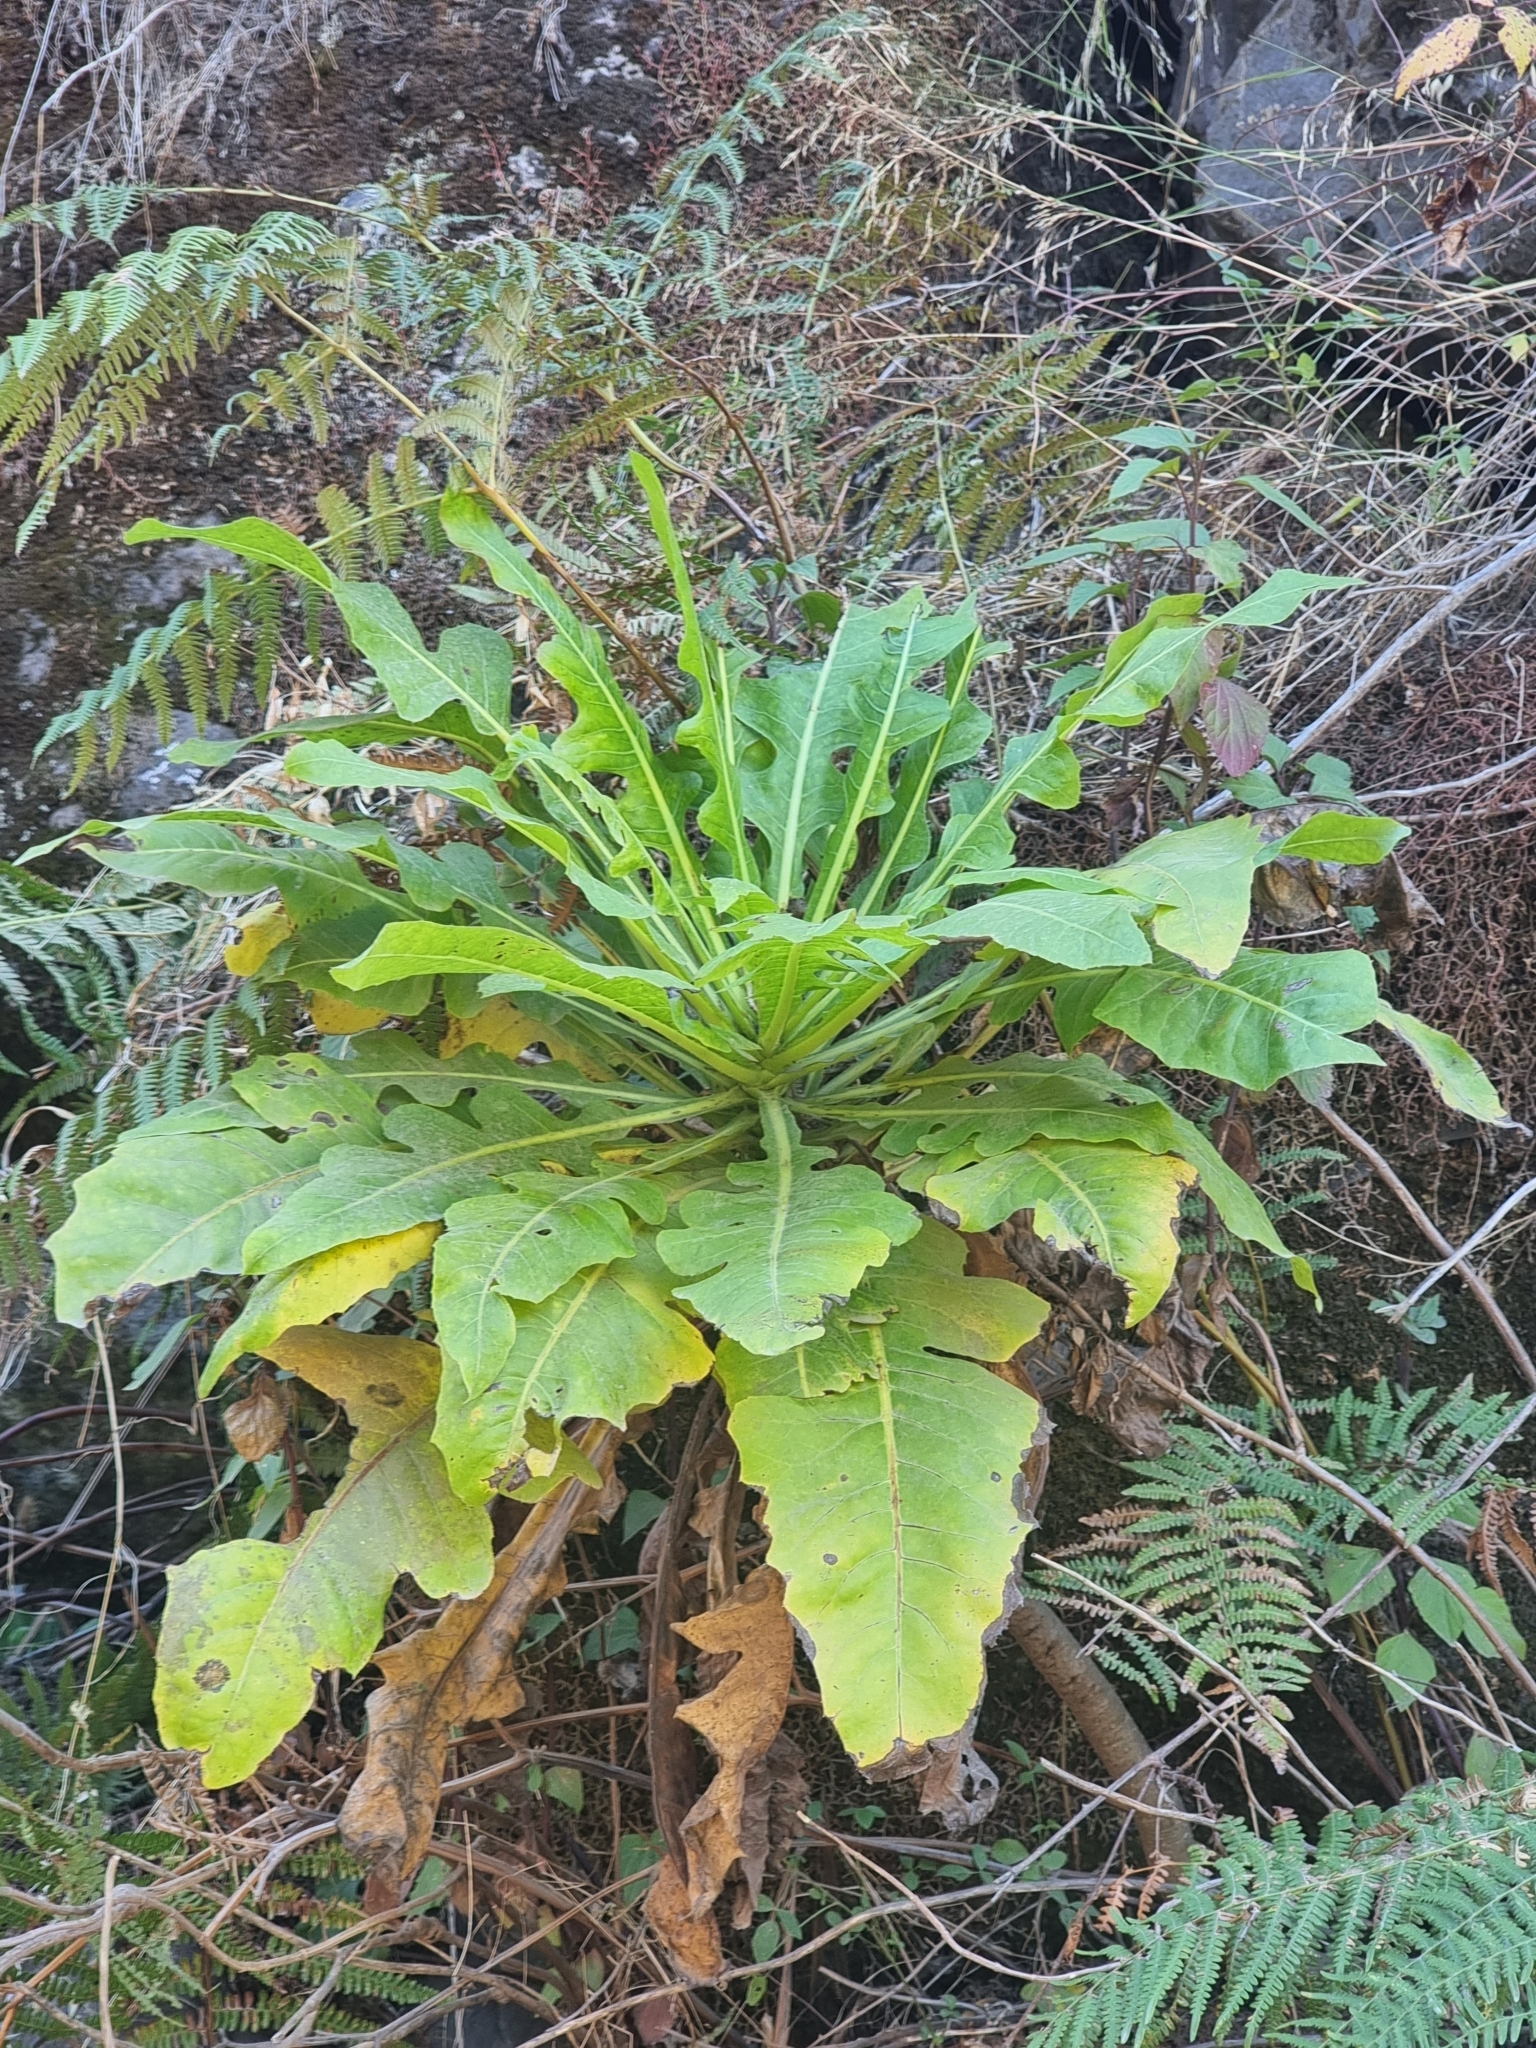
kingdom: Plantae
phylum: Tracheophyta
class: Magnoliopsida
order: Asterales
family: Asteraceae
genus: Sonchus
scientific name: Sonchus fruticosus
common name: Shrubby sow-thistle
